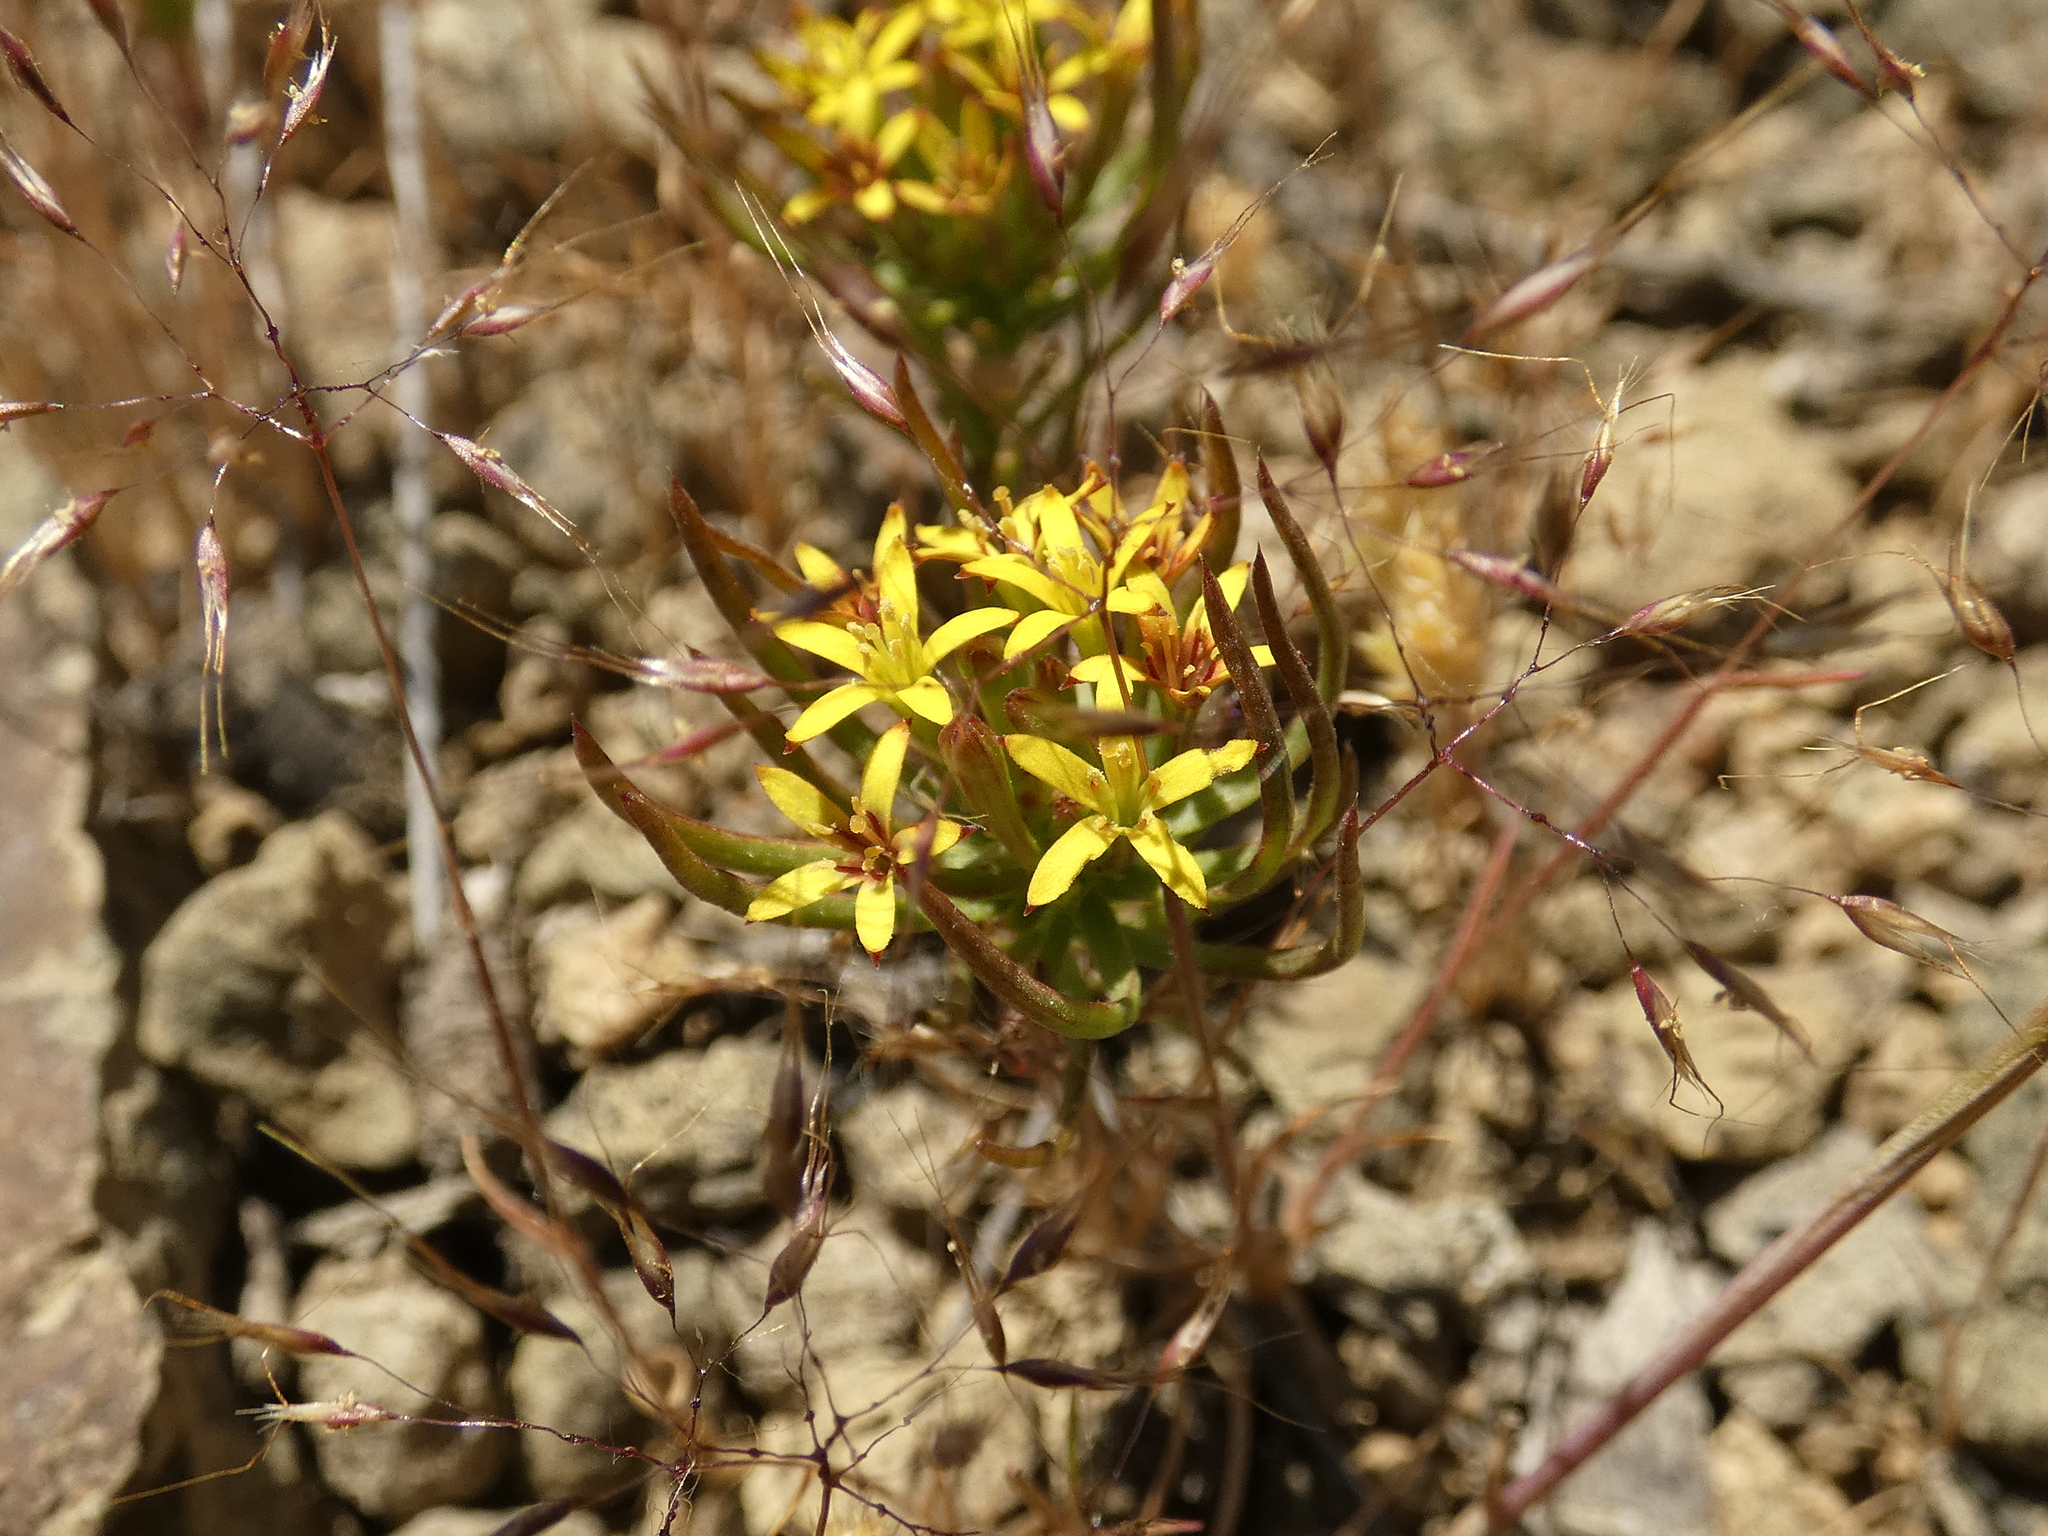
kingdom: Plantae
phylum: Tracheophyta
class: Magnoliopsida
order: Santalales
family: Schoepfiaceae
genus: Quinchamalium
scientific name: Quinchamalium chilense
